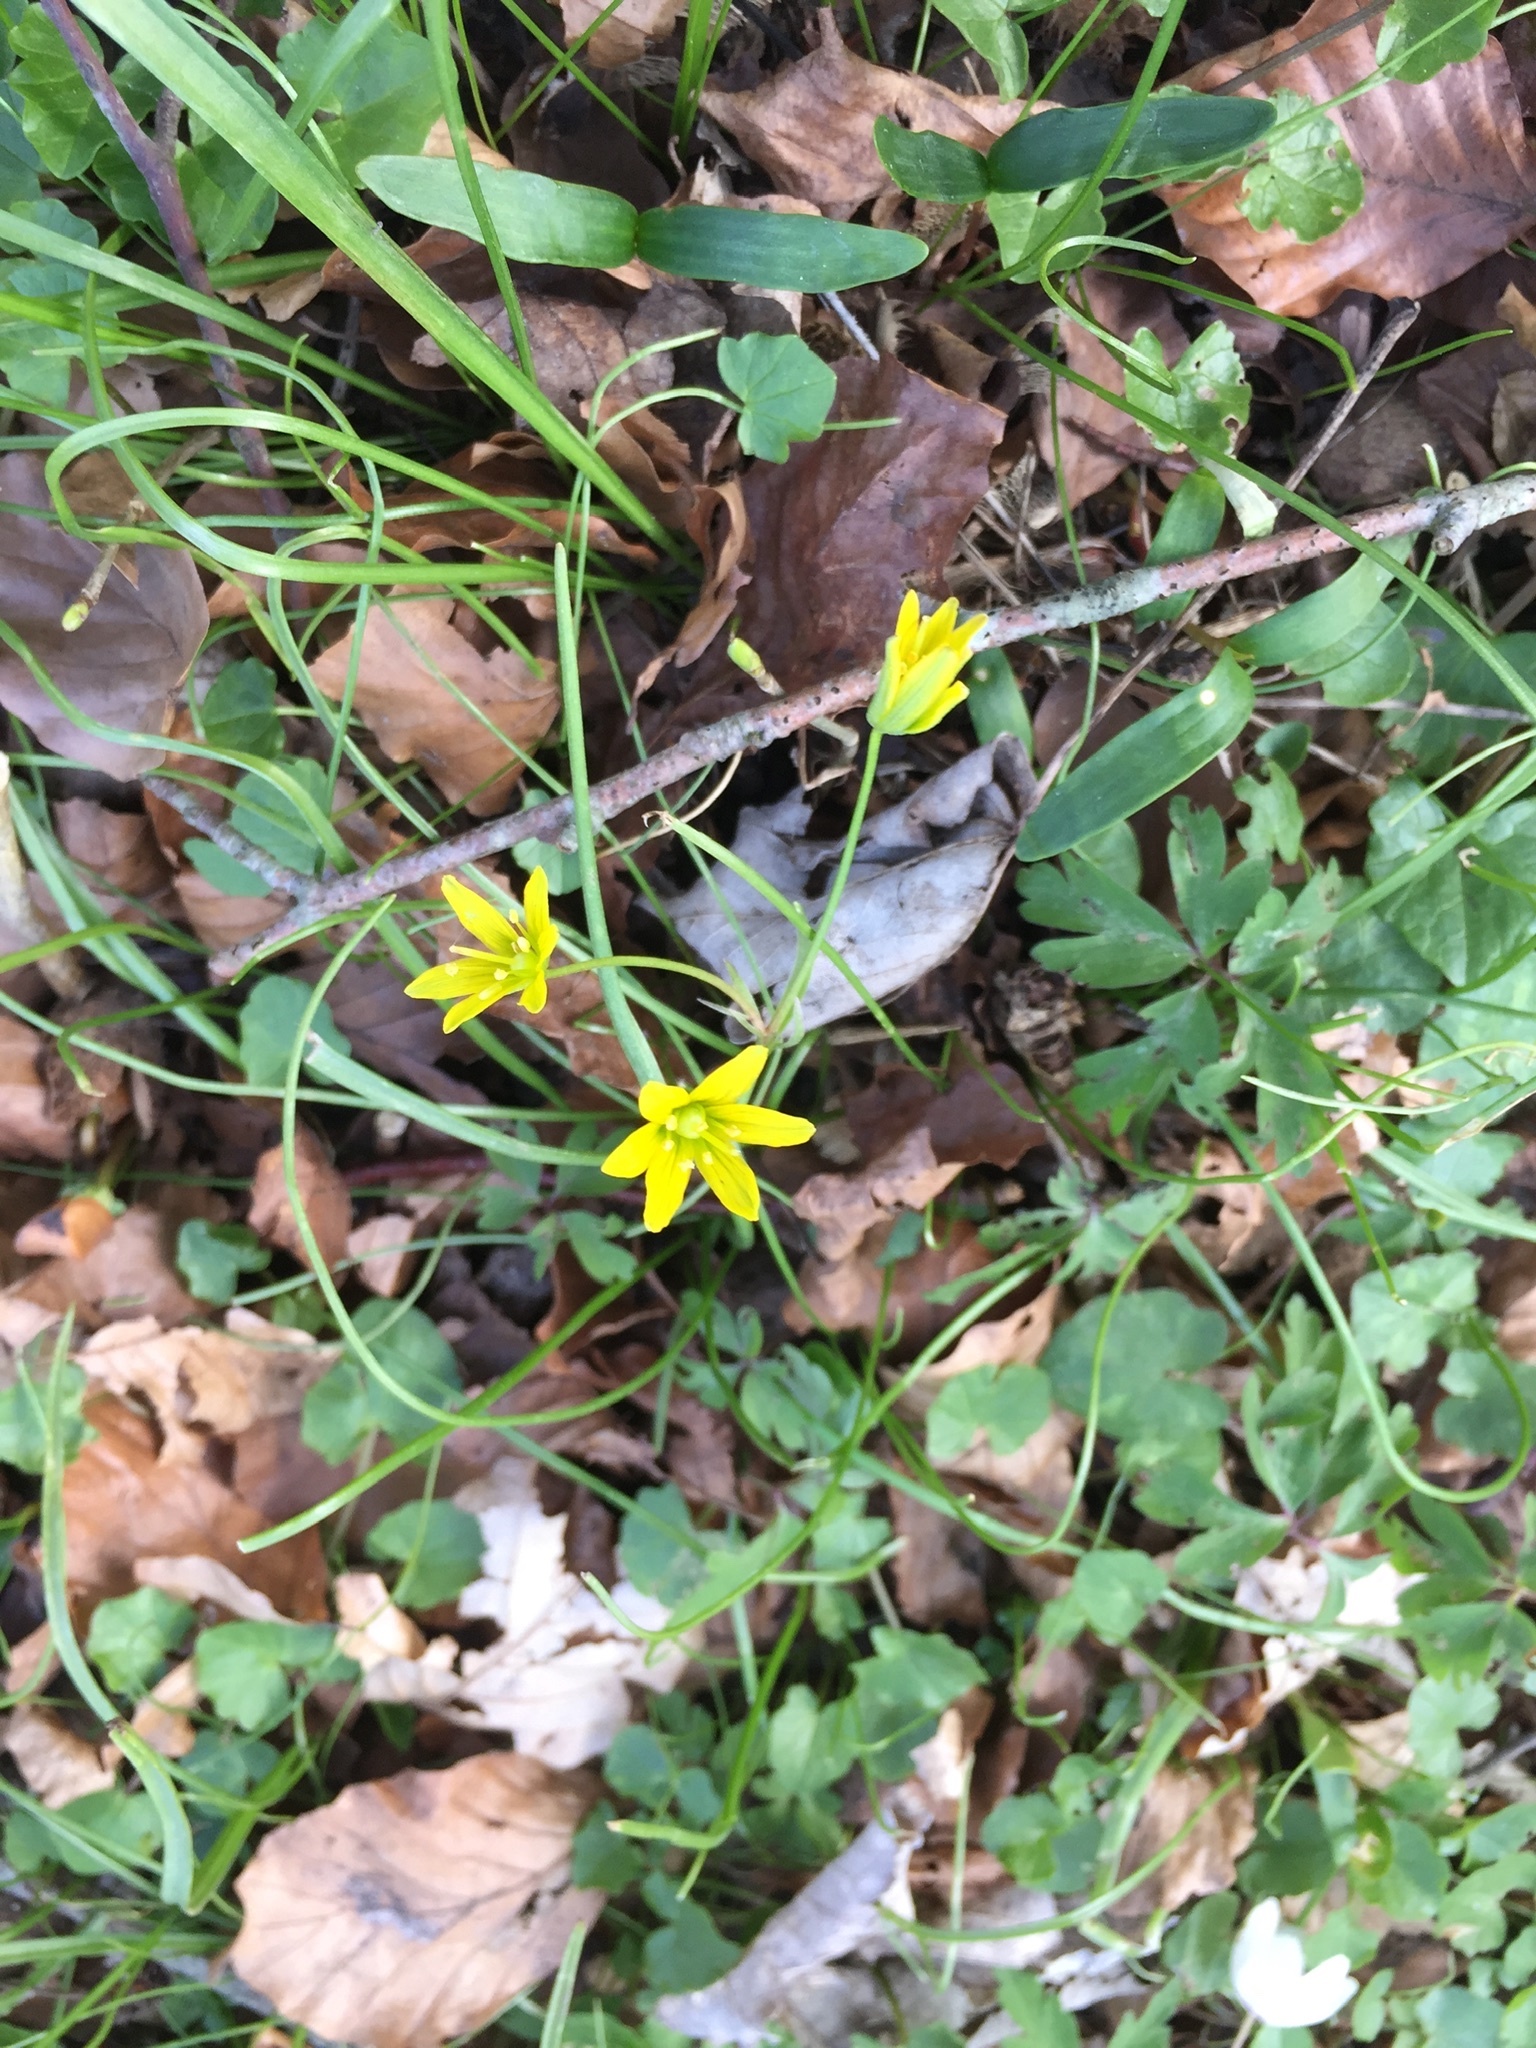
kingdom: Plantae
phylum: Tracheophyta
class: Liliopsida
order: Liliales
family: Liliaceae
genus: Gagea
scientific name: Gagea lutea
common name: Yellow star-of-bethlehem
